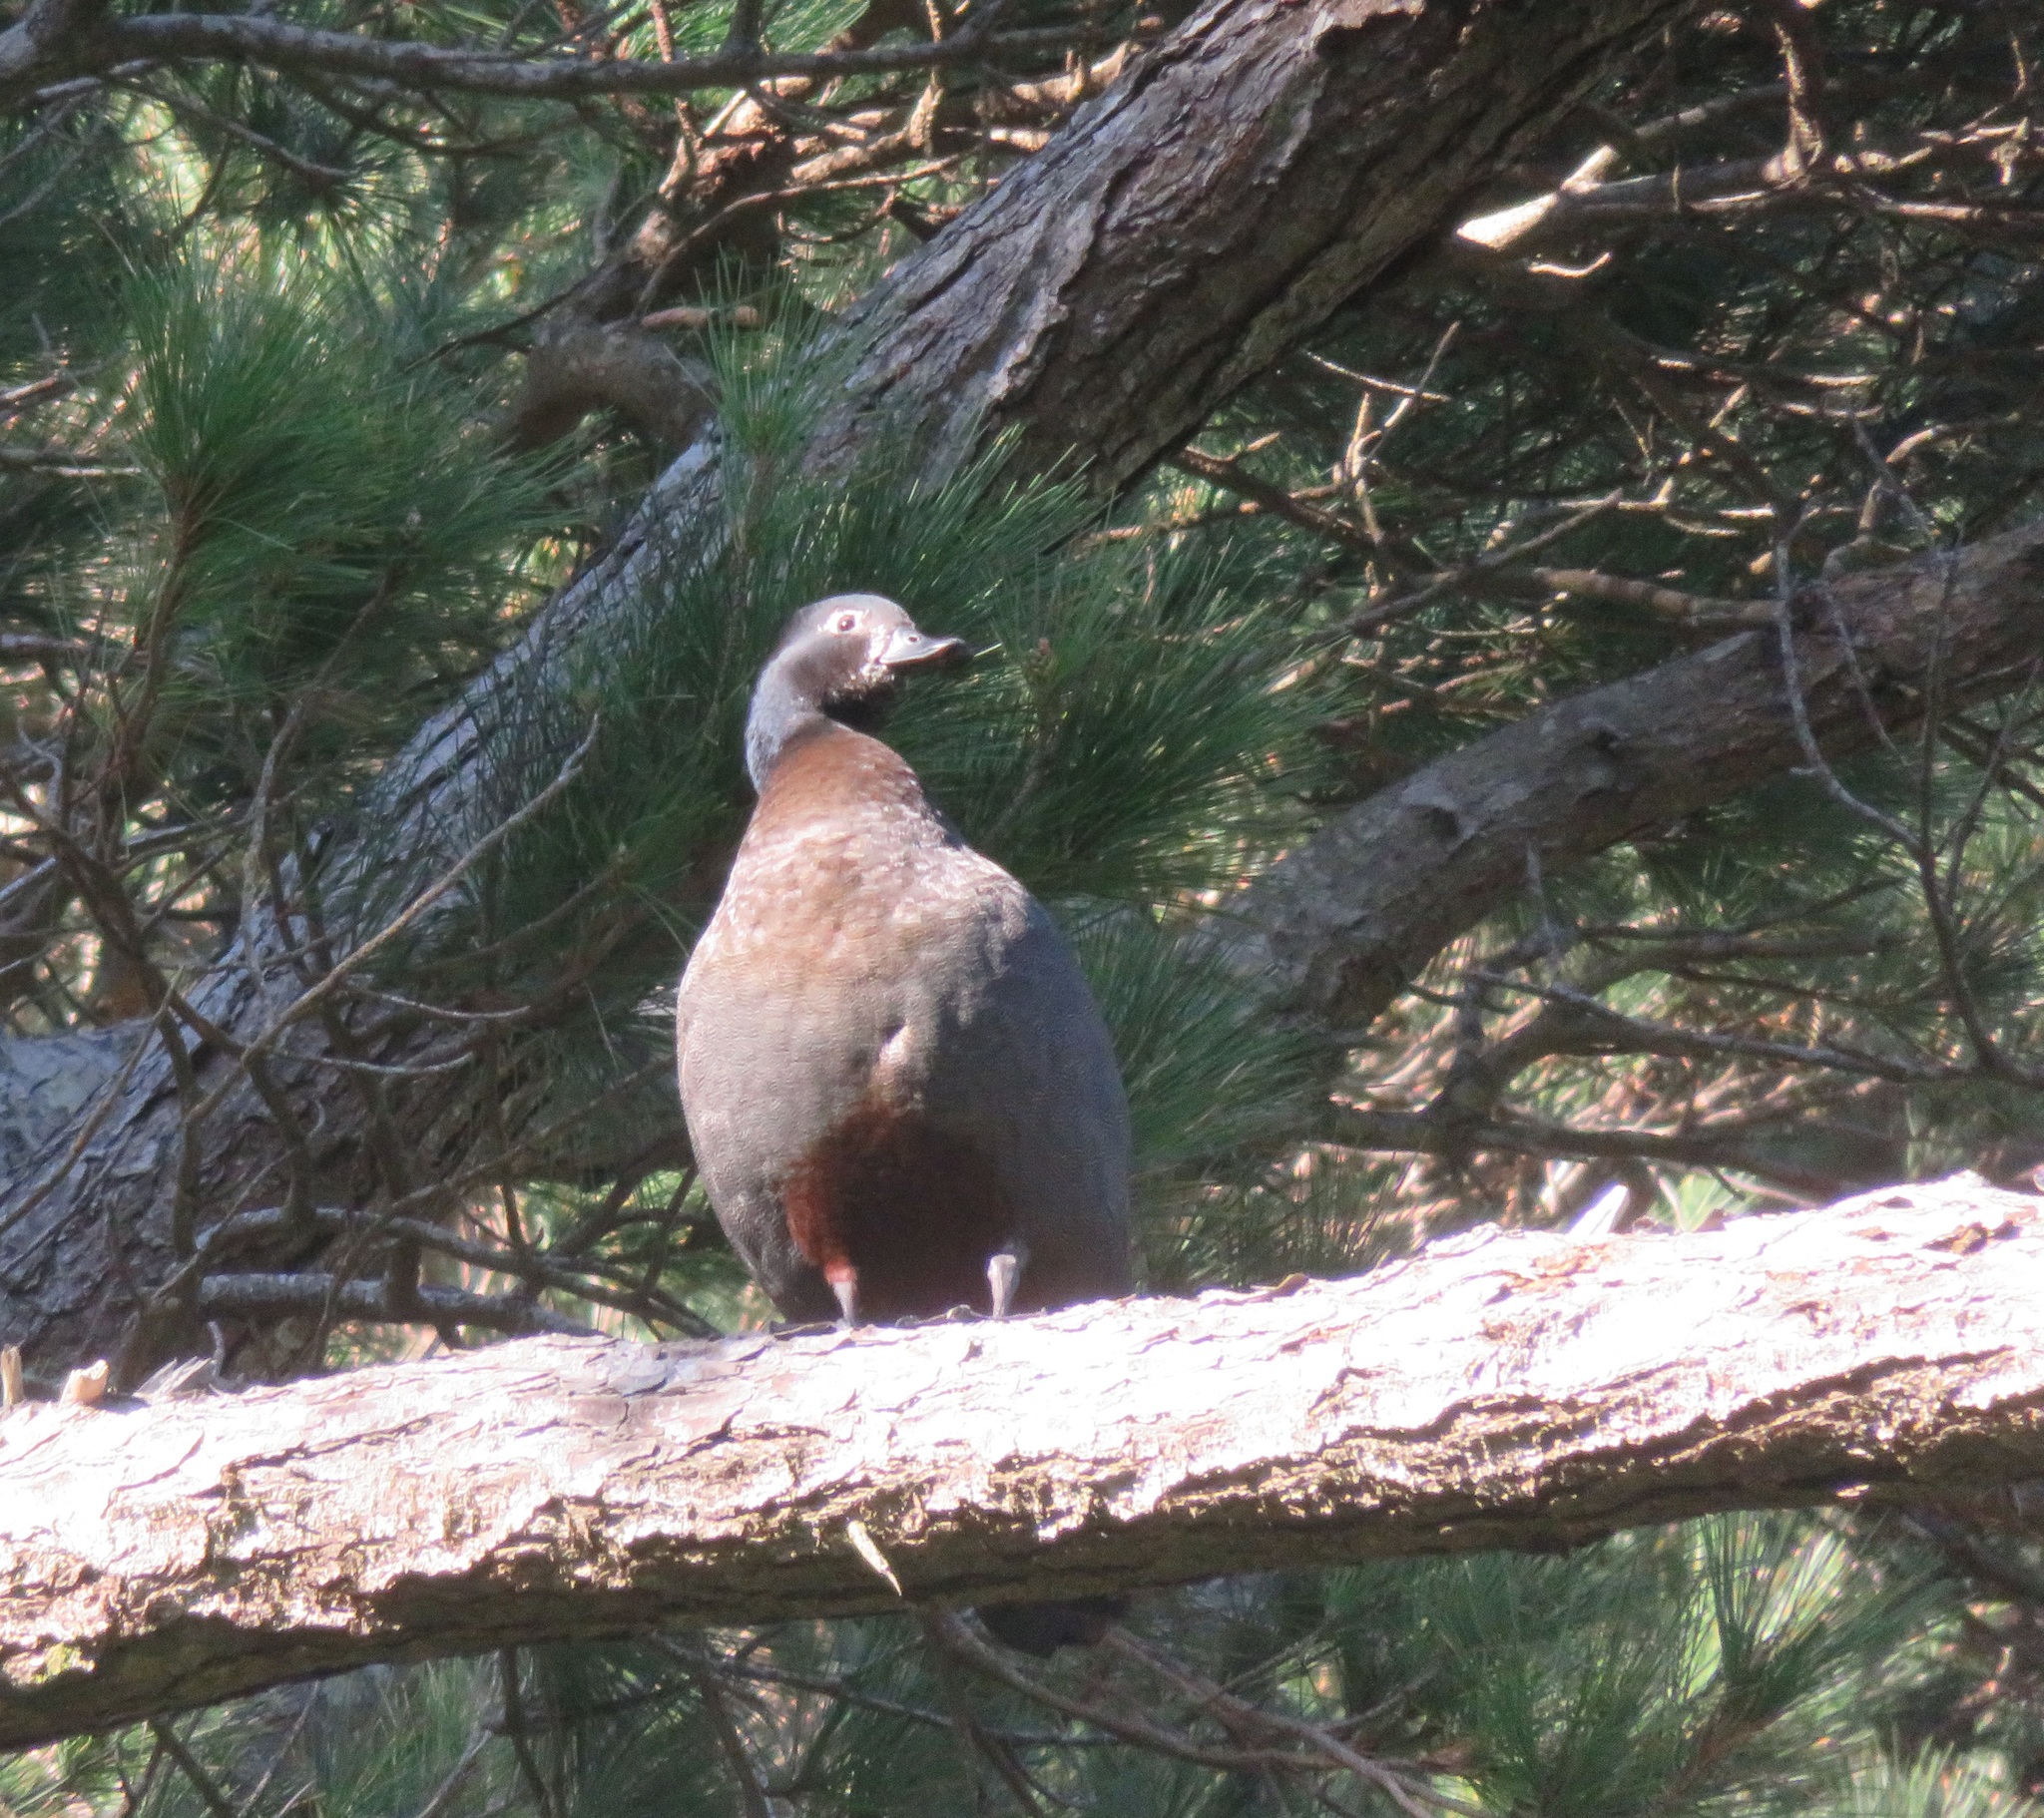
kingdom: Animalia
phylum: Chordata
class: Aves
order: Anseriformes
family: Anatidae
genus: Tadorna
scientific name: Tadorna variegata
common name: Paradise shelduck
